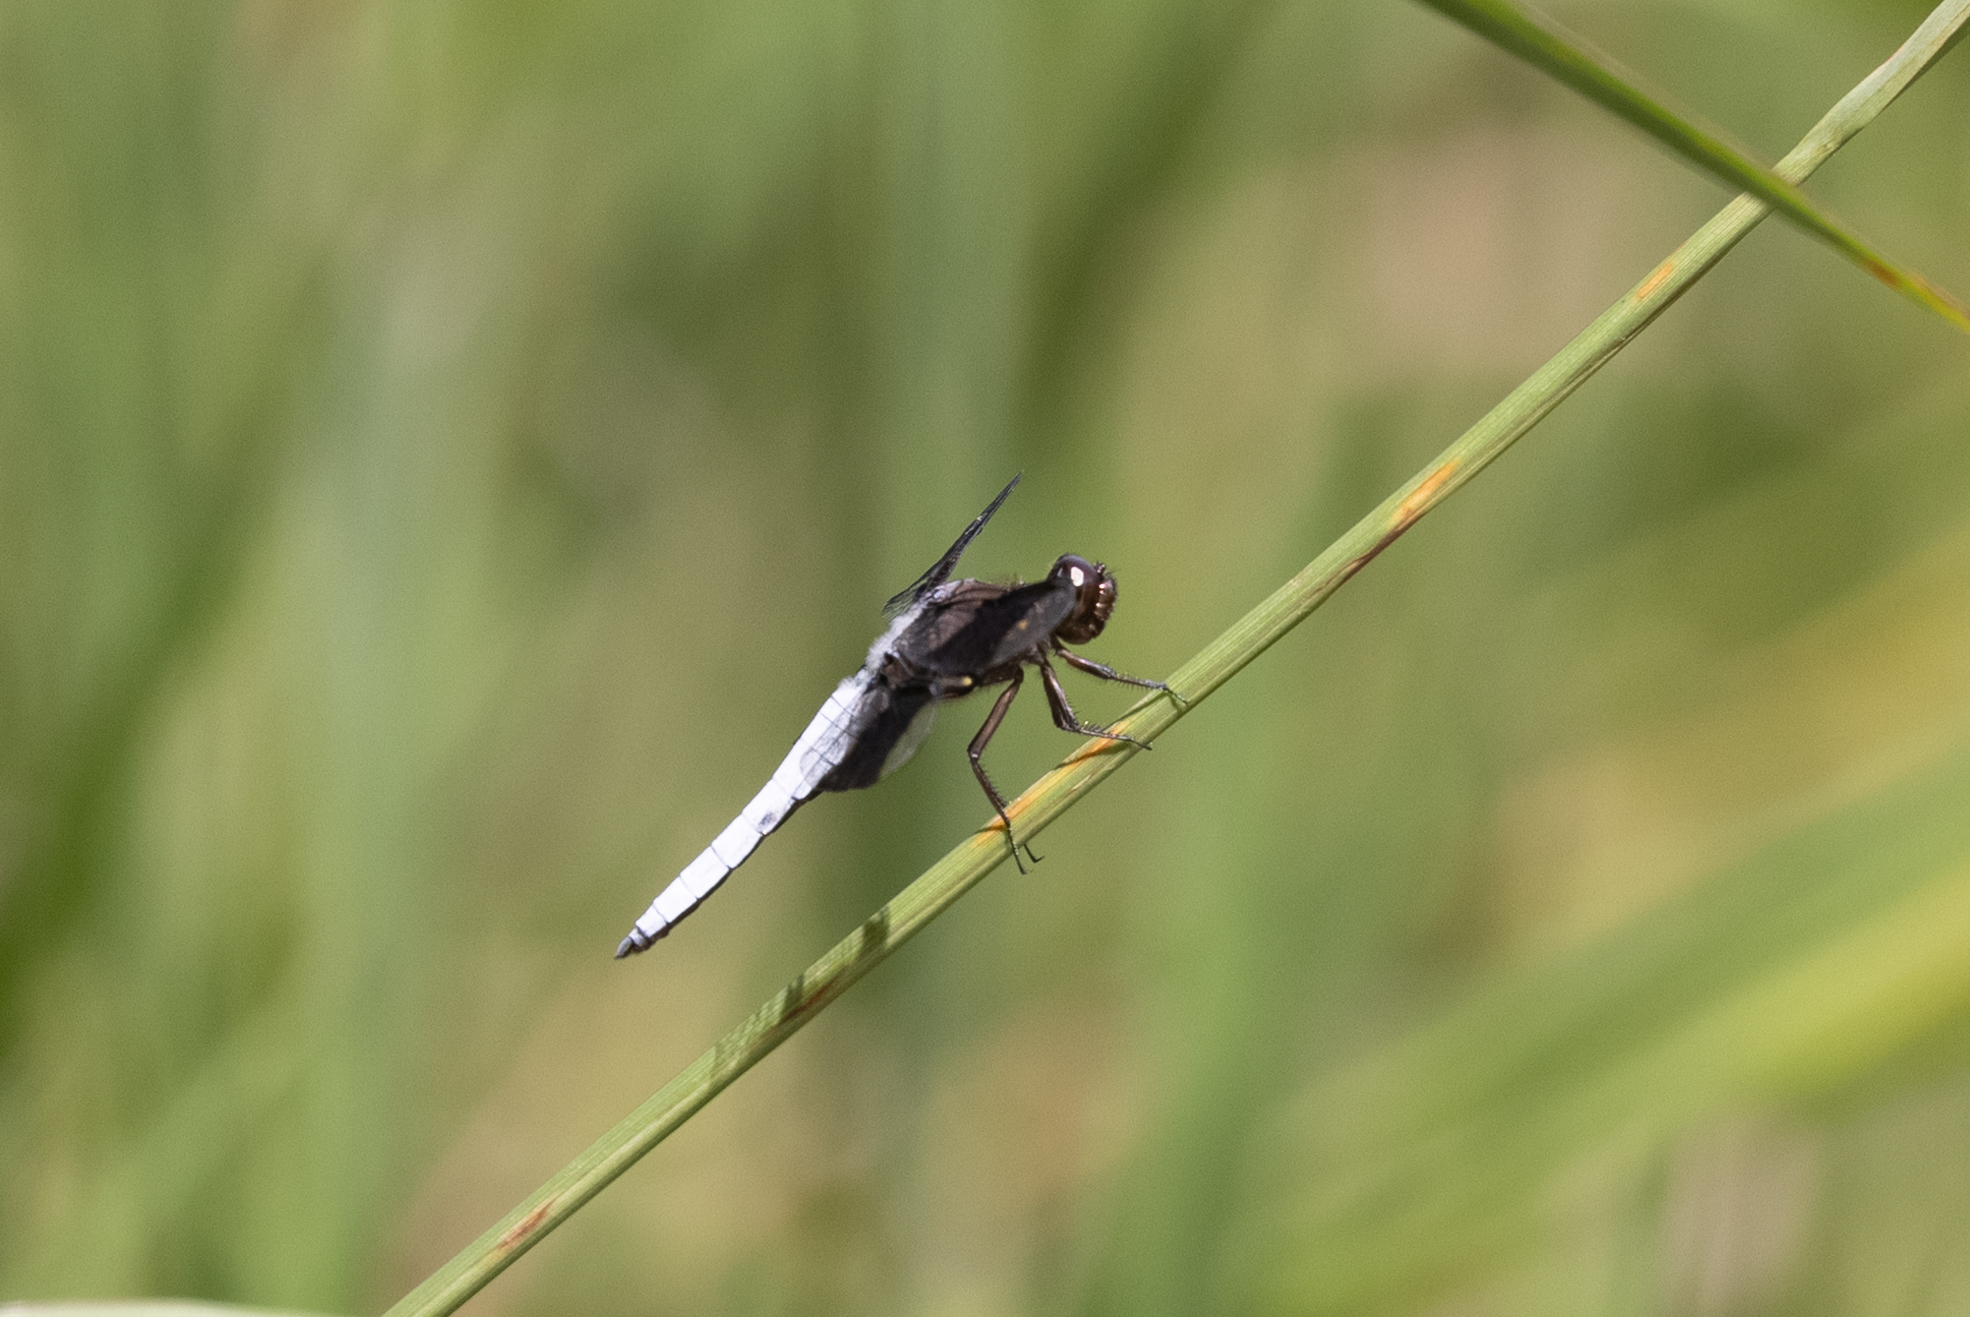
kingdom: Animalia
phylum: Arthropoda
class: Insecta
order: Odonata
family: Libellulidae
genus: Plathemis
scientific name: Plathemis lydia
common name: Common whitetail
